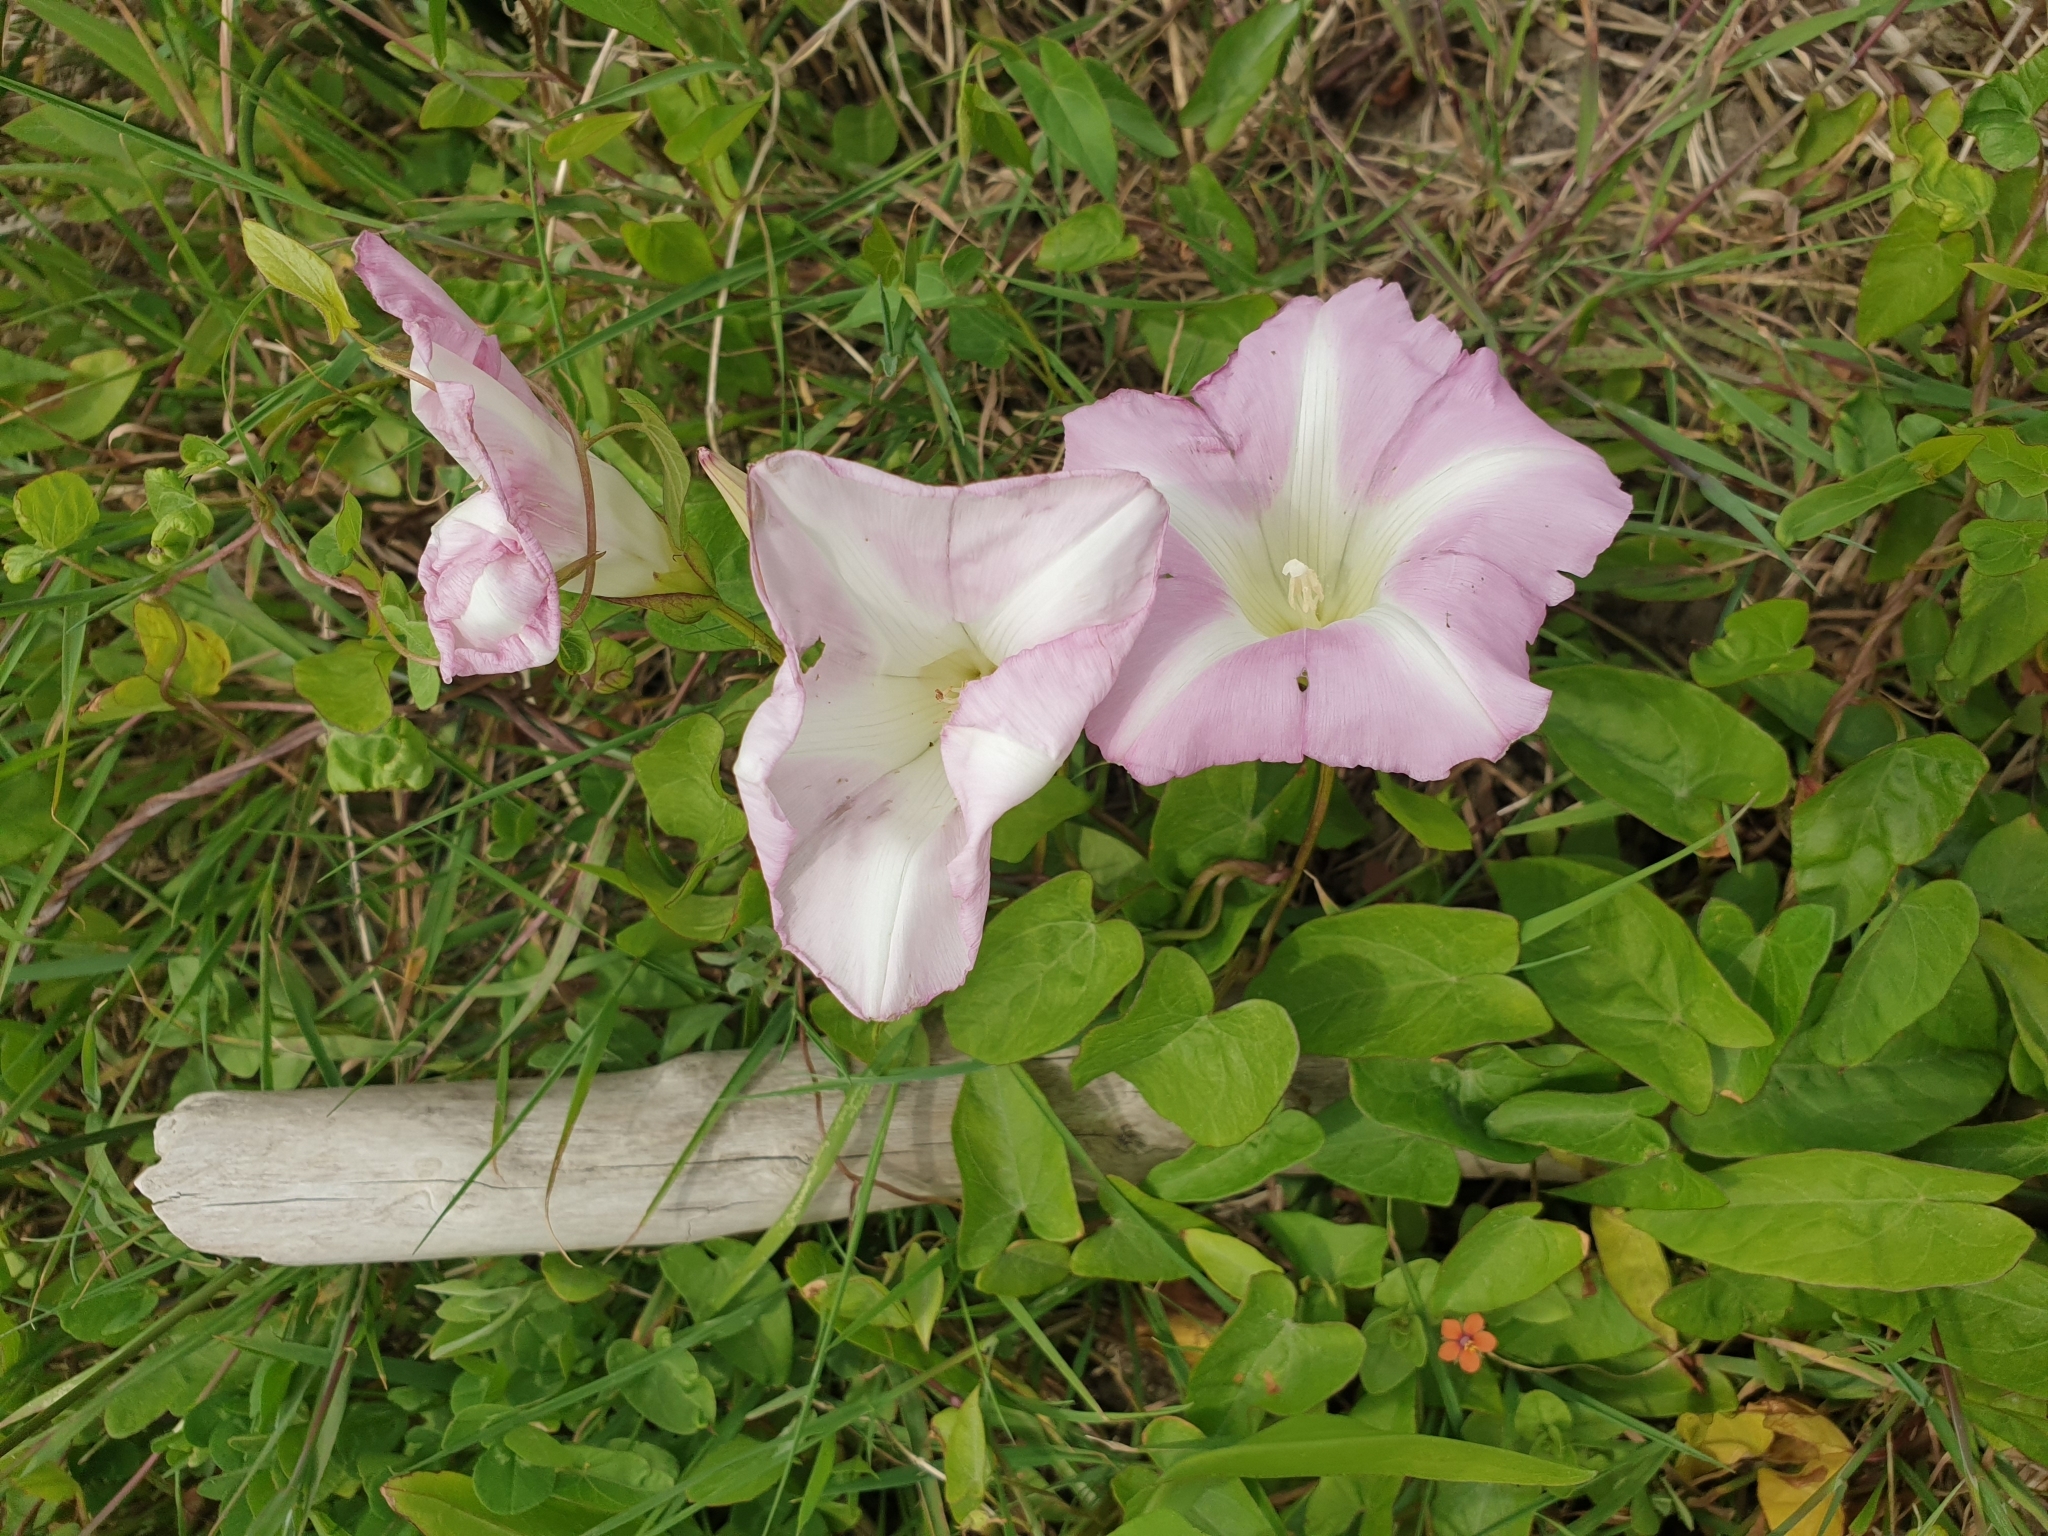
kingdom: Plantae
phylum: Tracheophyta
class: Magnoliopsida
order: Solanales
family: Convolvulaceae
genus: Calystegia
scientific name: Calystegia sepium
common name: Hedge bindweed
